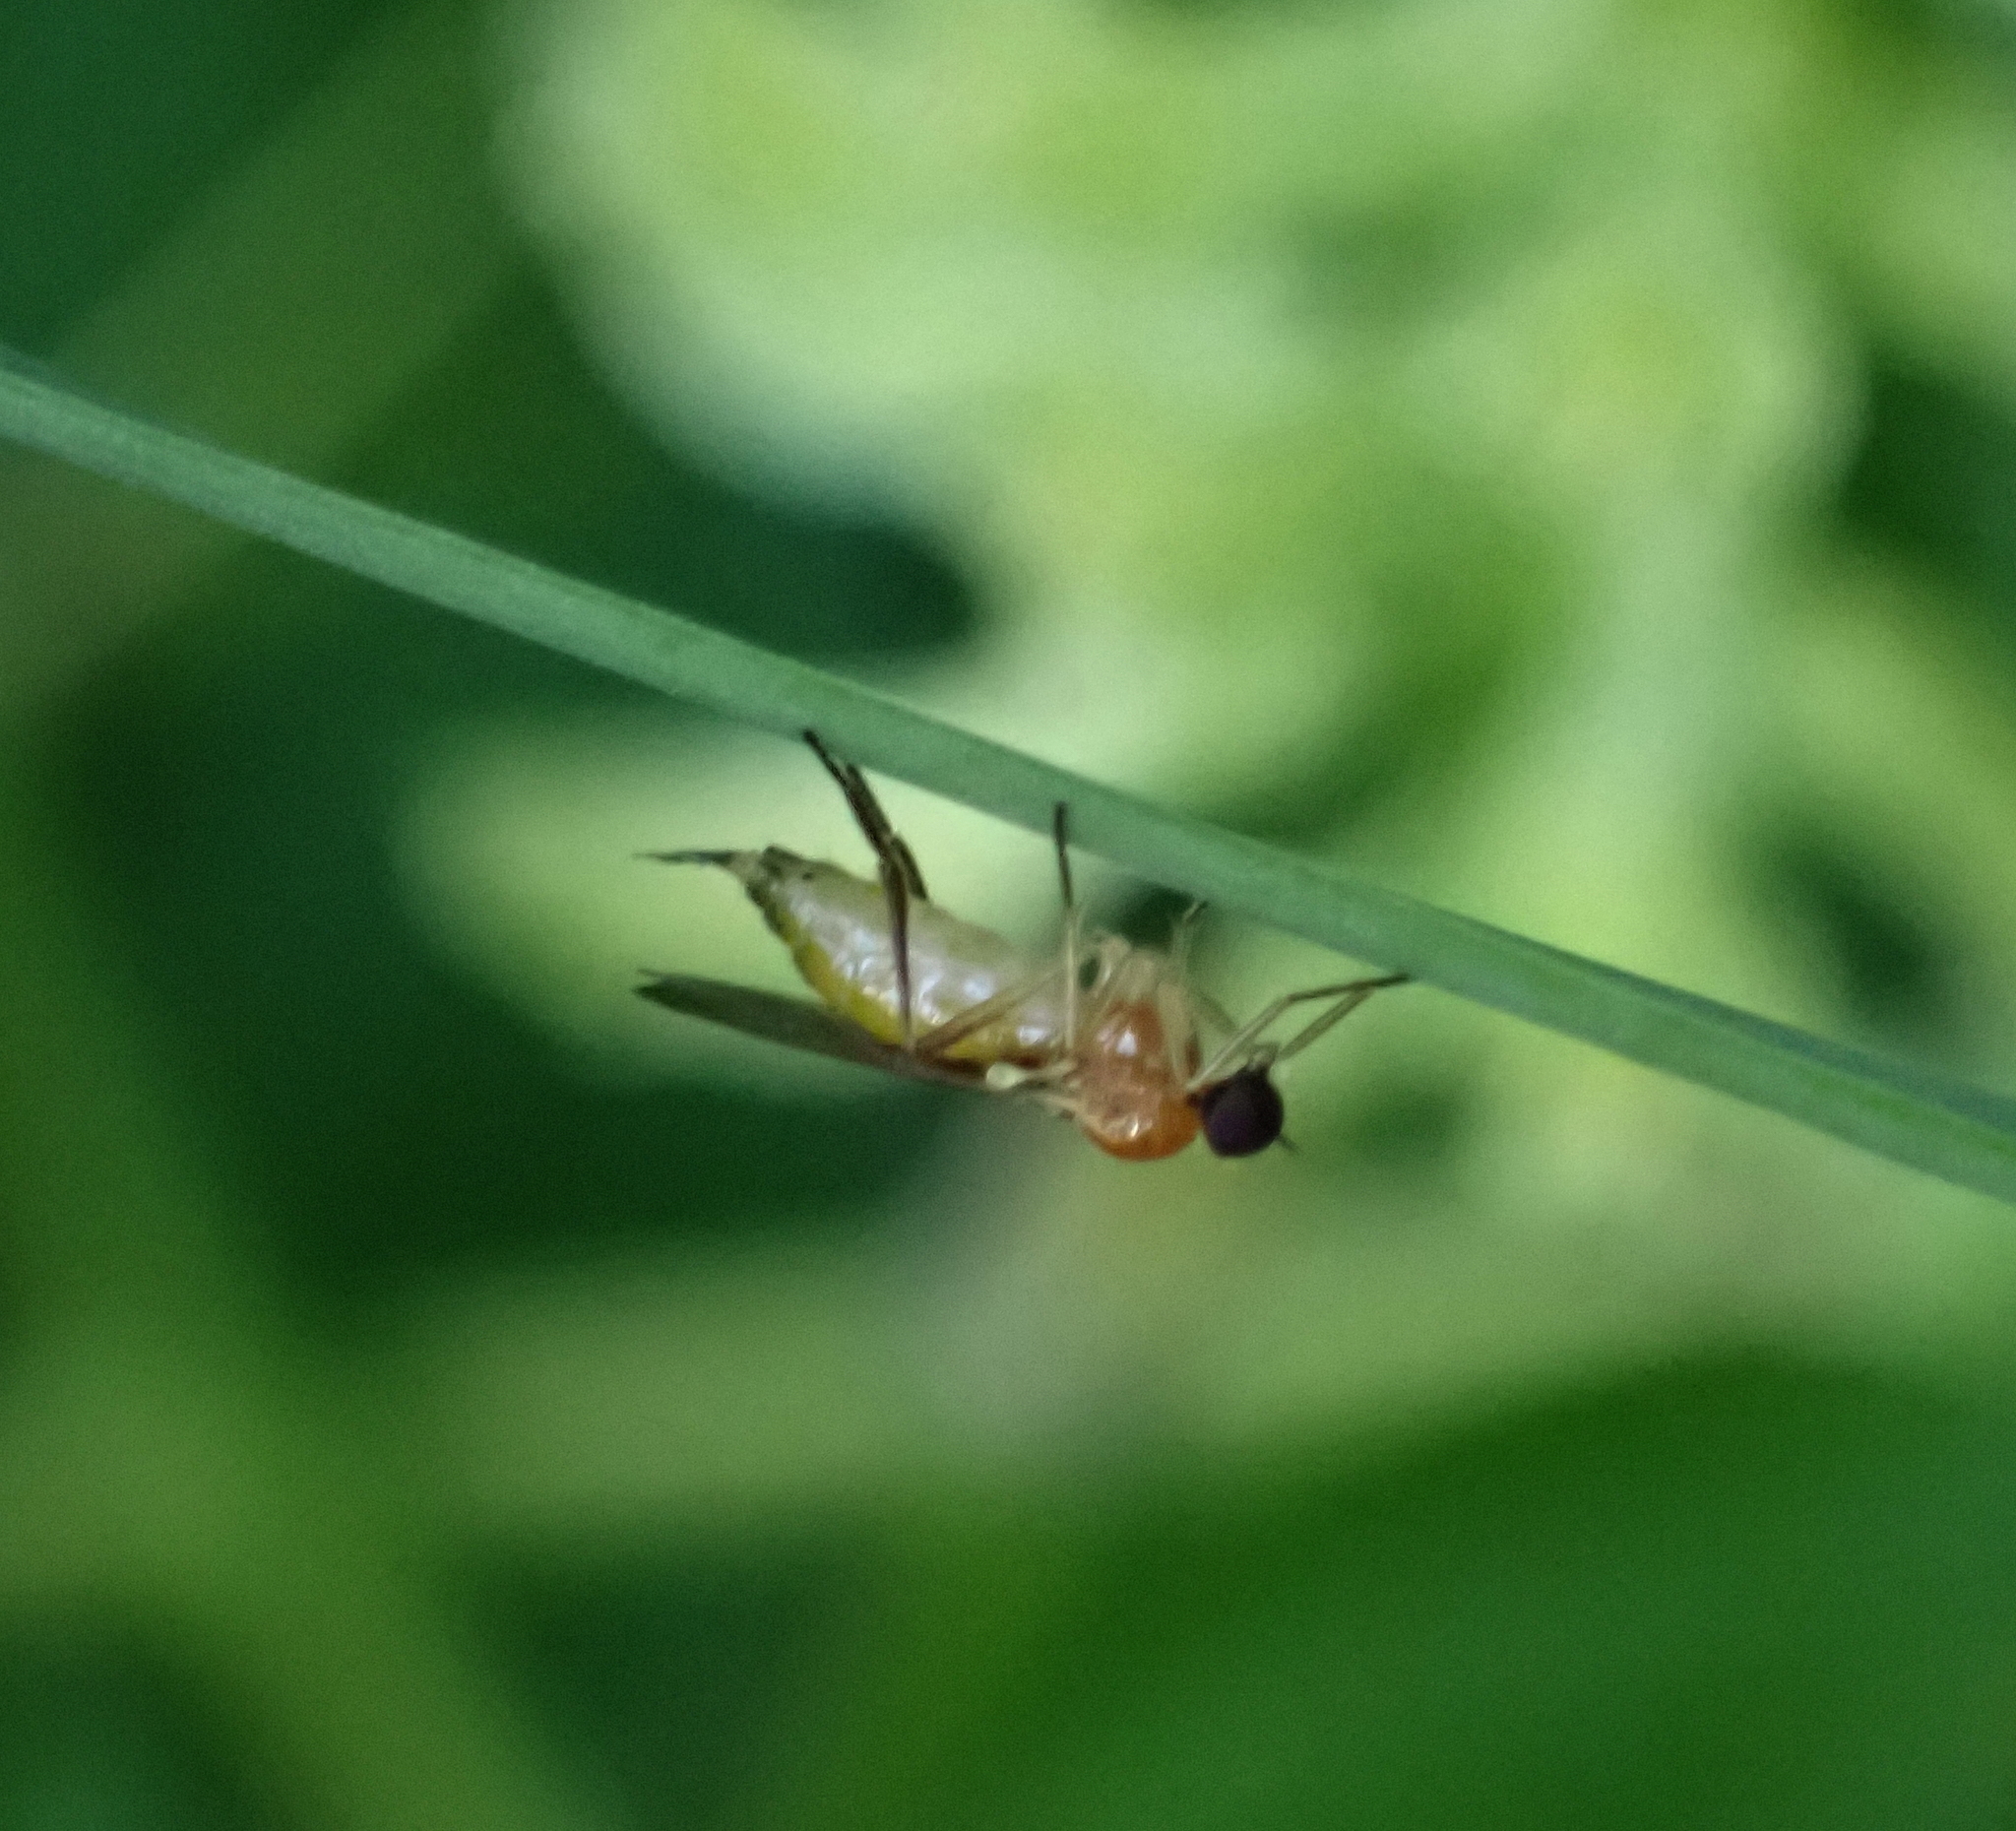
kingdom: Animalia
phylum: Arthropoda
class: Insecta
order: Diptera
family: Hybotidae
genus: Leptopeza
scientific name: Leptopeza flavipes
